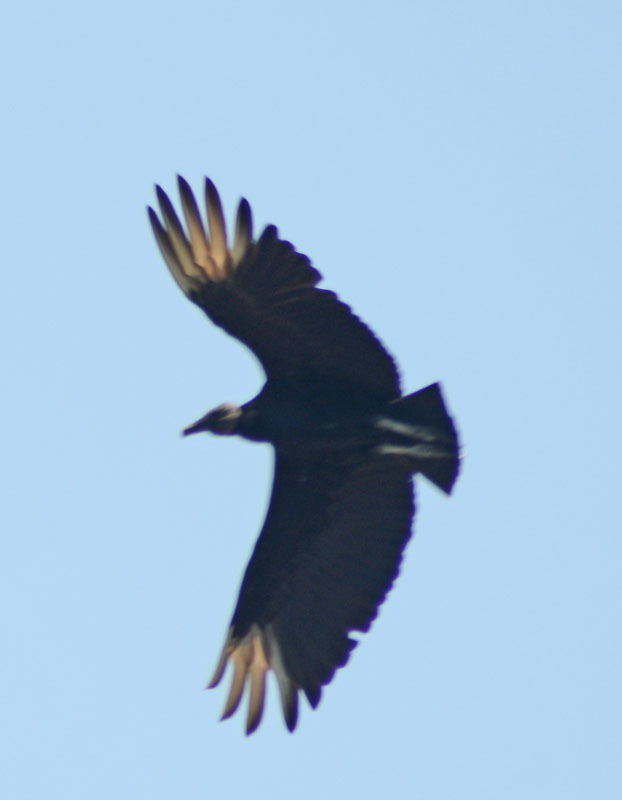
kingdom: Animalia
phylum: Chordata
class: Aves
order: Accipitriformes
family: Cathartidae
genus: Coragyps
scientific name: Coragyps atratus
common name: Black vulture
